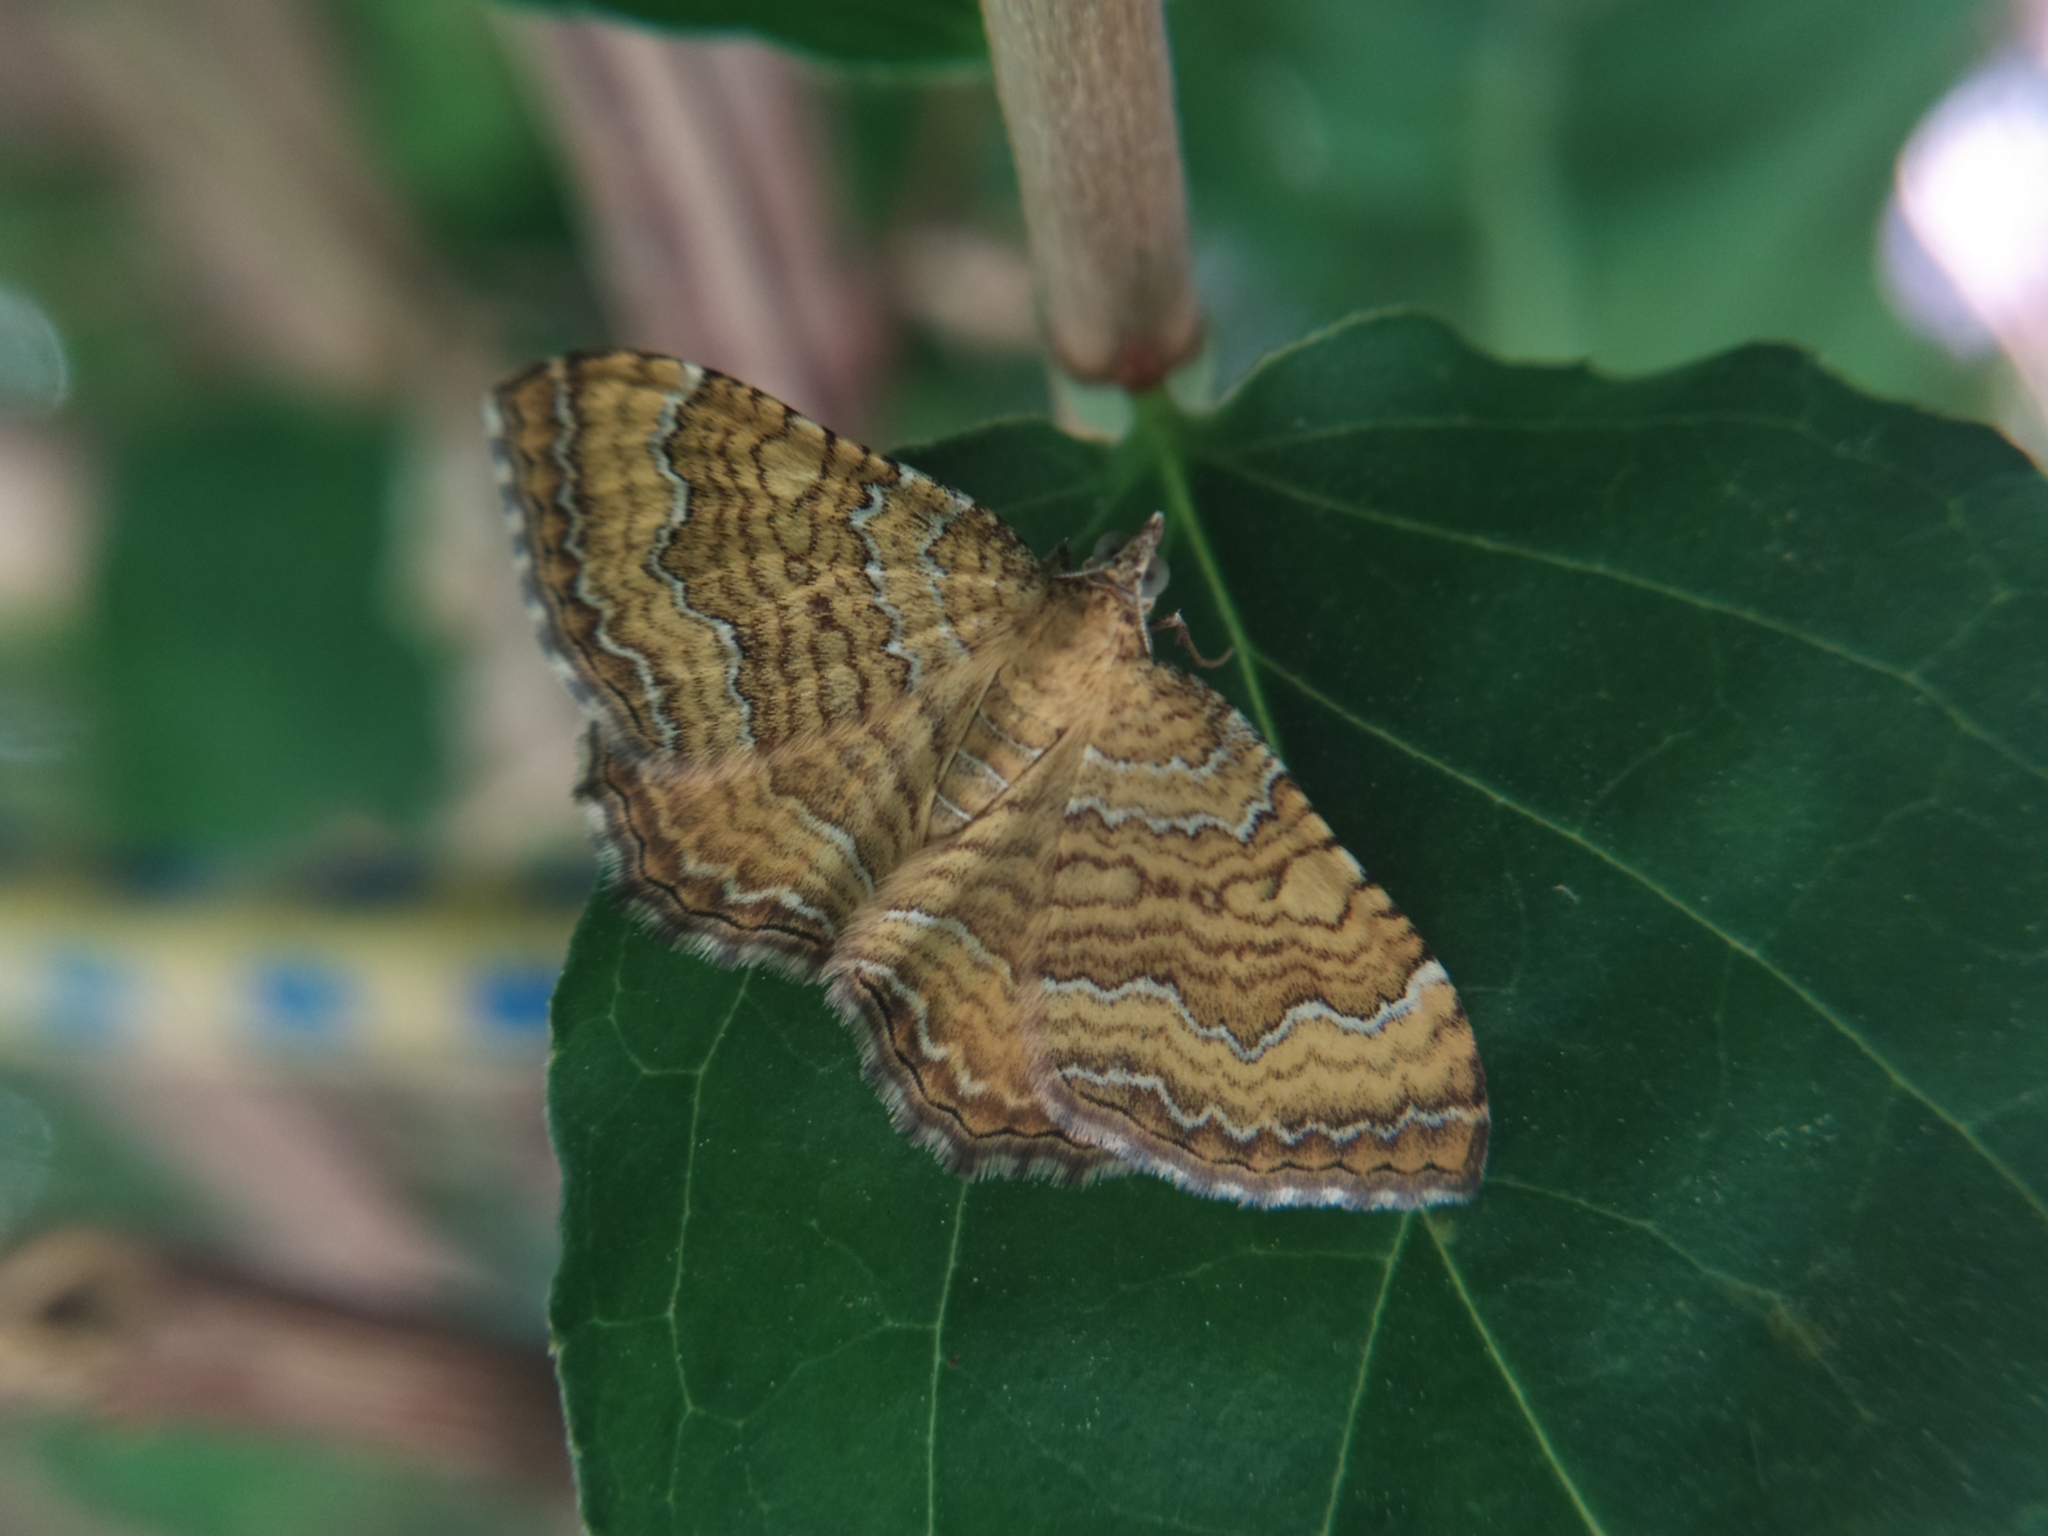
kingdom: Animalia
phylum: Arthropoda
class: Insecta
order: Lepidoptera
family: Geometridae
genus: Camptogramma
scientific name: Camptogramma bilineata
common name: Yellow shell
